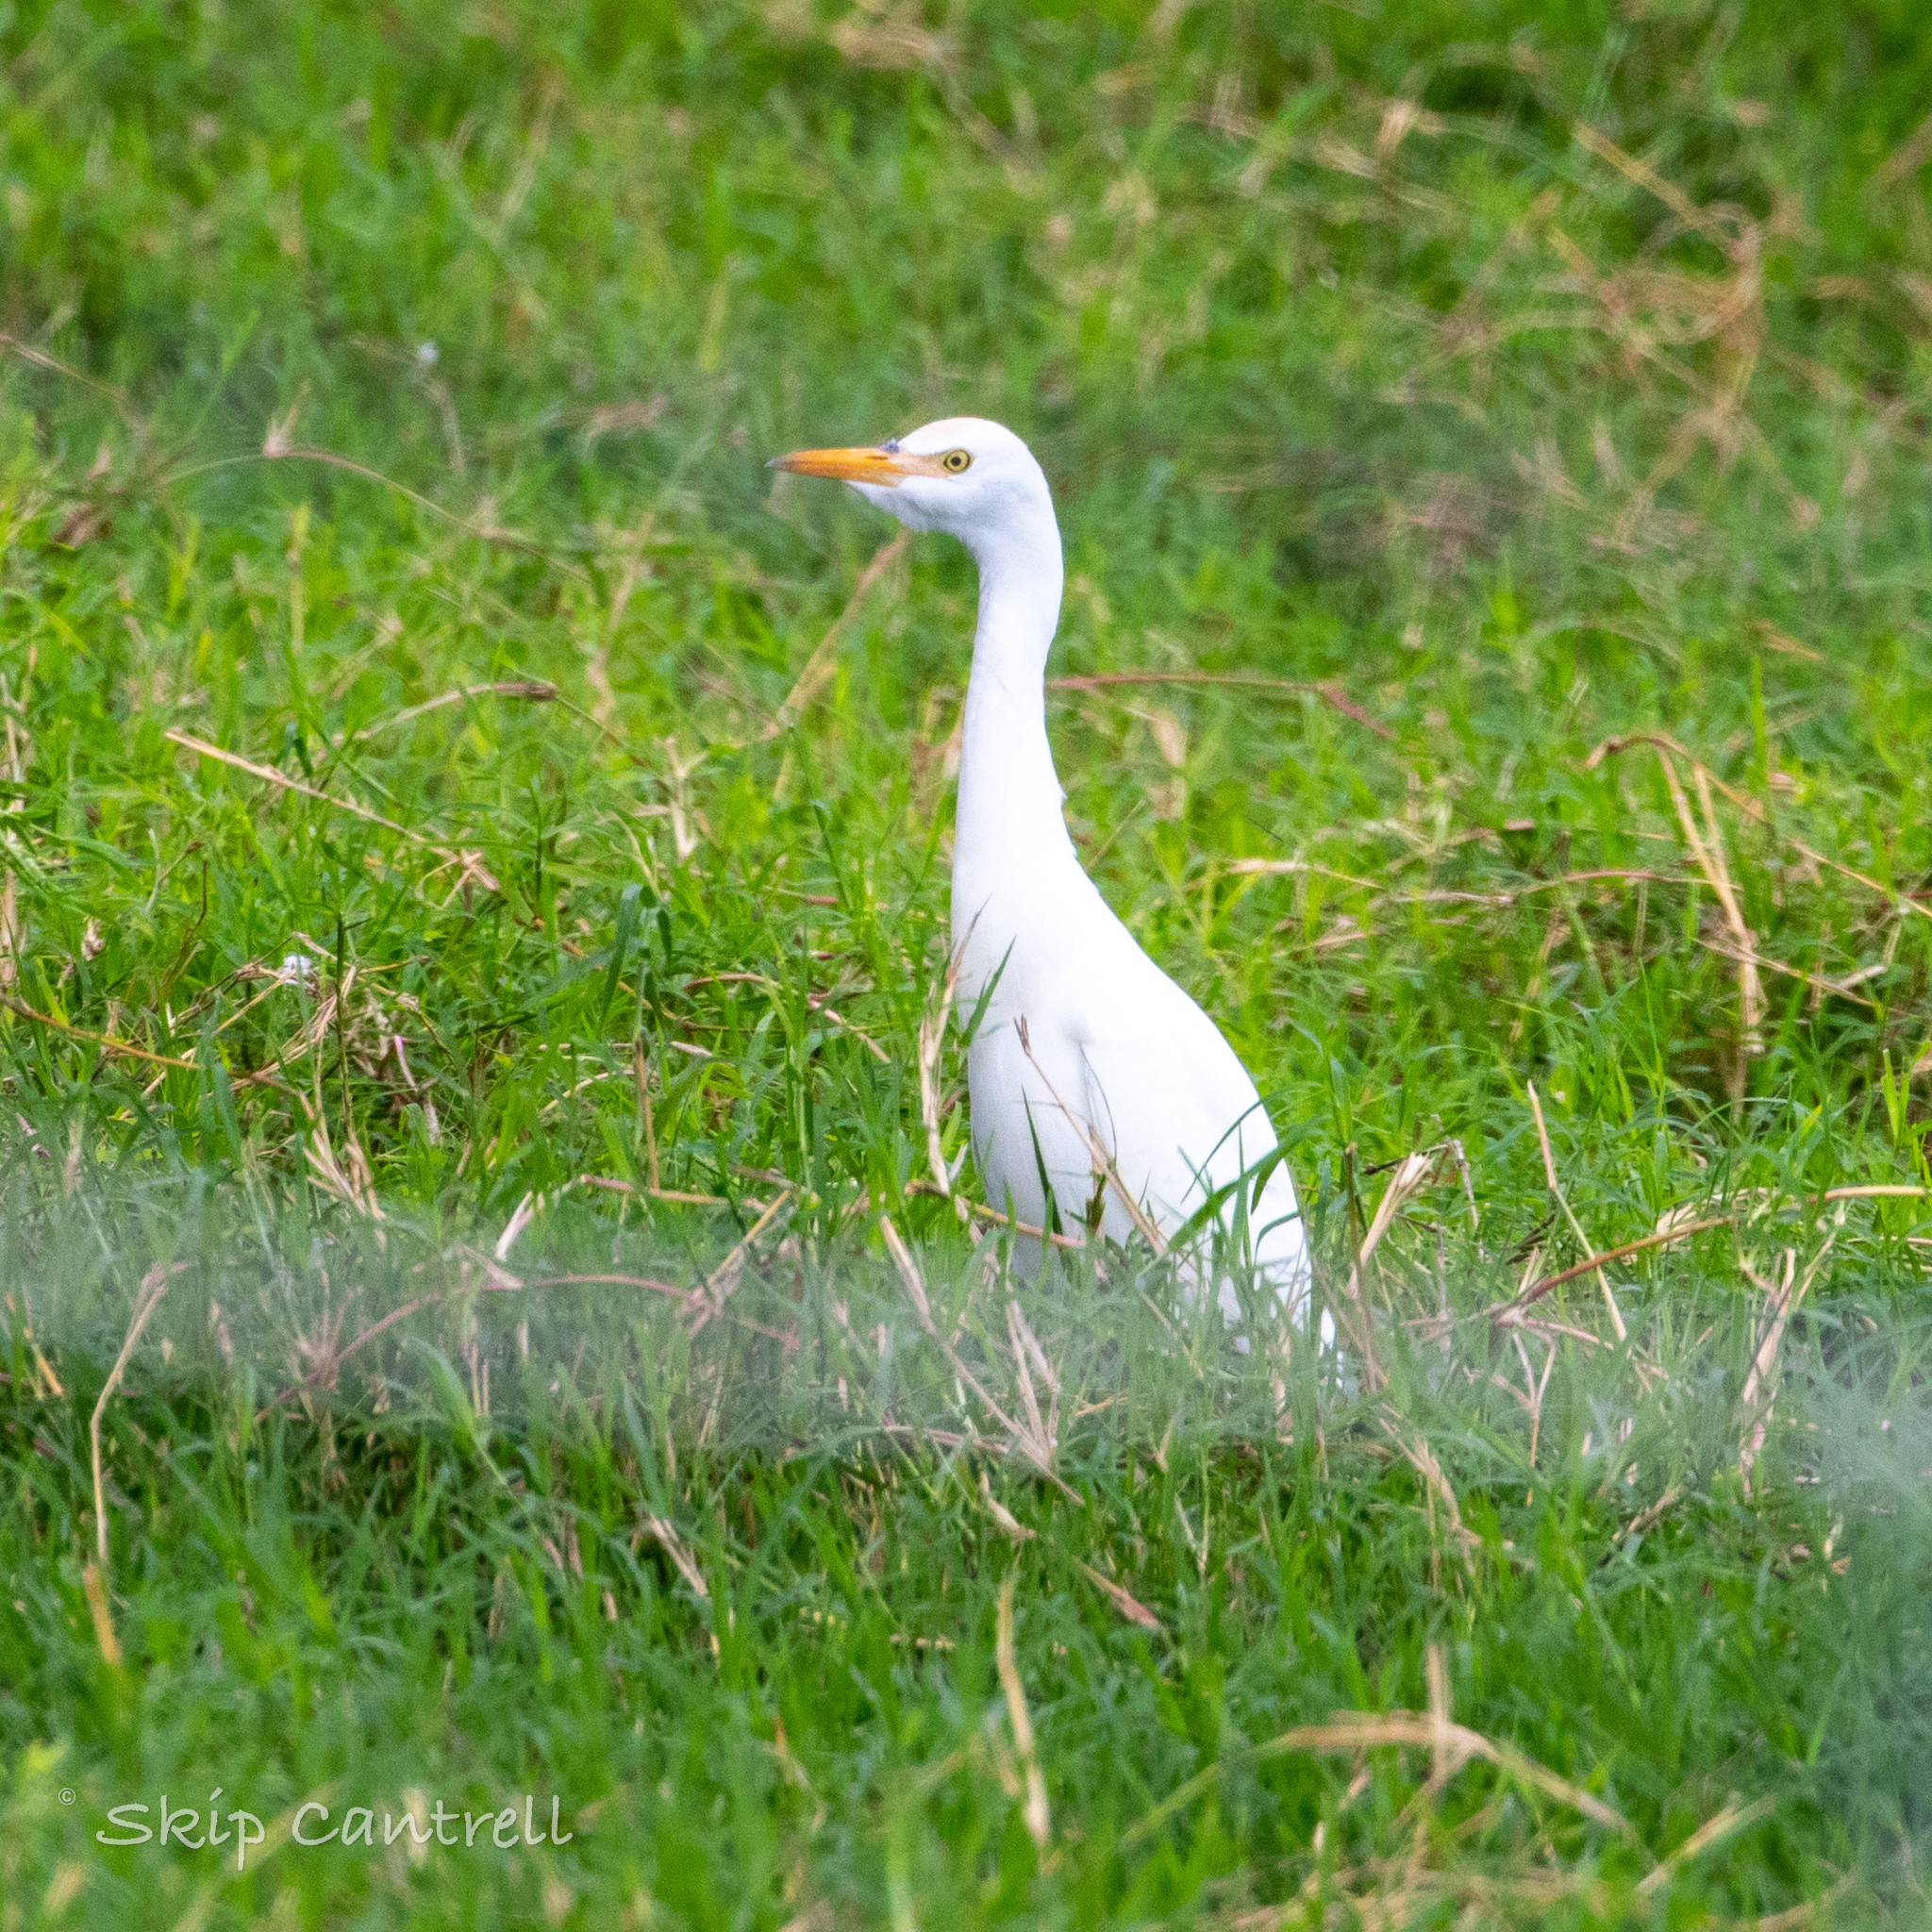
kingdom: Animalia
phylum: Chordata
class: Aves
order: Pelecaniformes
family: Ardeidae
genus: Bubulcus
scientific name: Bubulcus ibis
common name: Cattle egret
